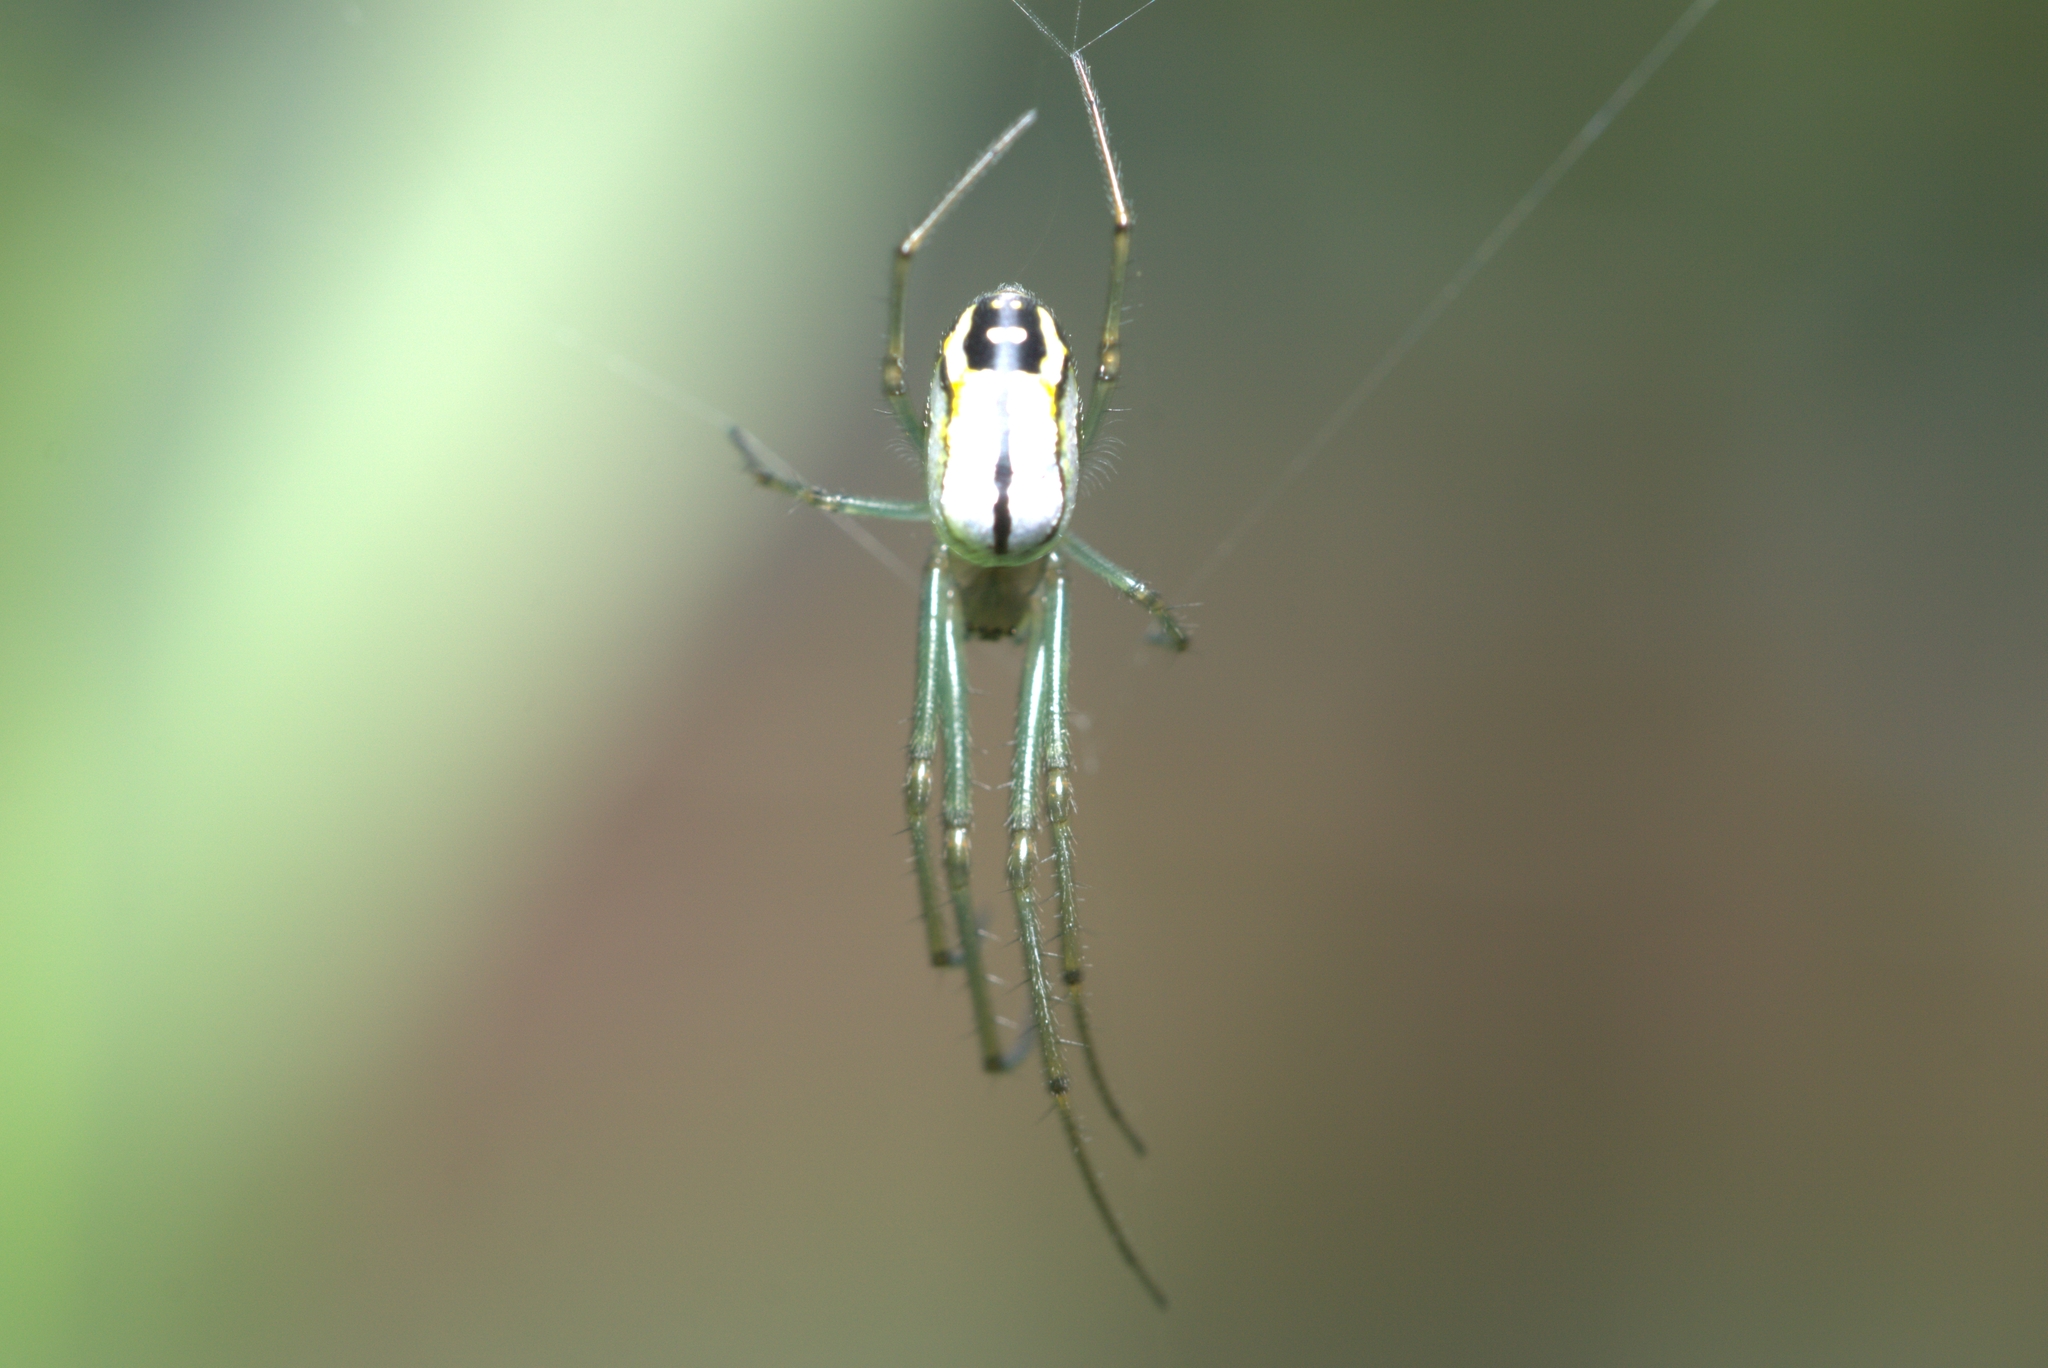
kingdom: Animalia
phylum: Arthropoda
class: Arachnida
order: Araneae
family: Tetragnathidae
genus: Leucauge
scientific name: Leucauge volupis
